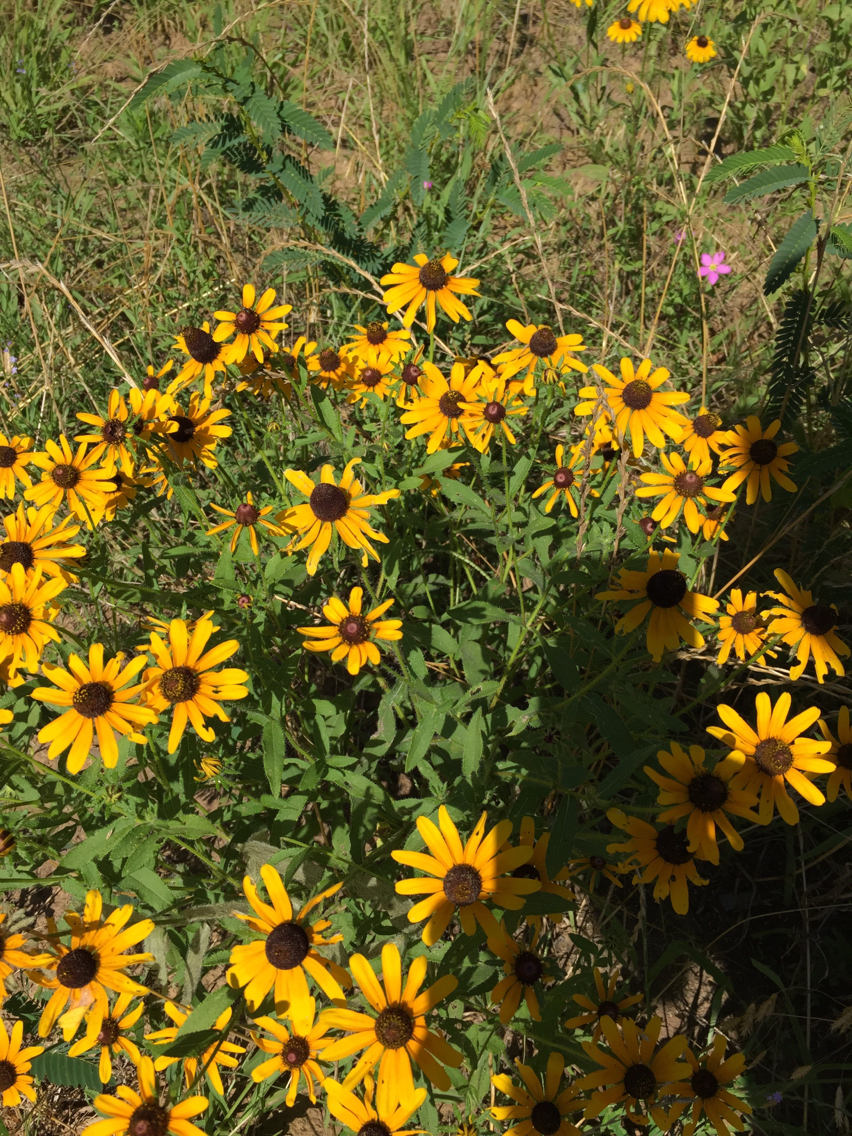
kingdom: Plantae
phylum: Tracheophyta
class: Magnoliopsida
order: Asterales
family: Asteraceae
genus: Rudbeckia
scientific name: Rudbeckia hirta
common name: Black-eyed-susan
